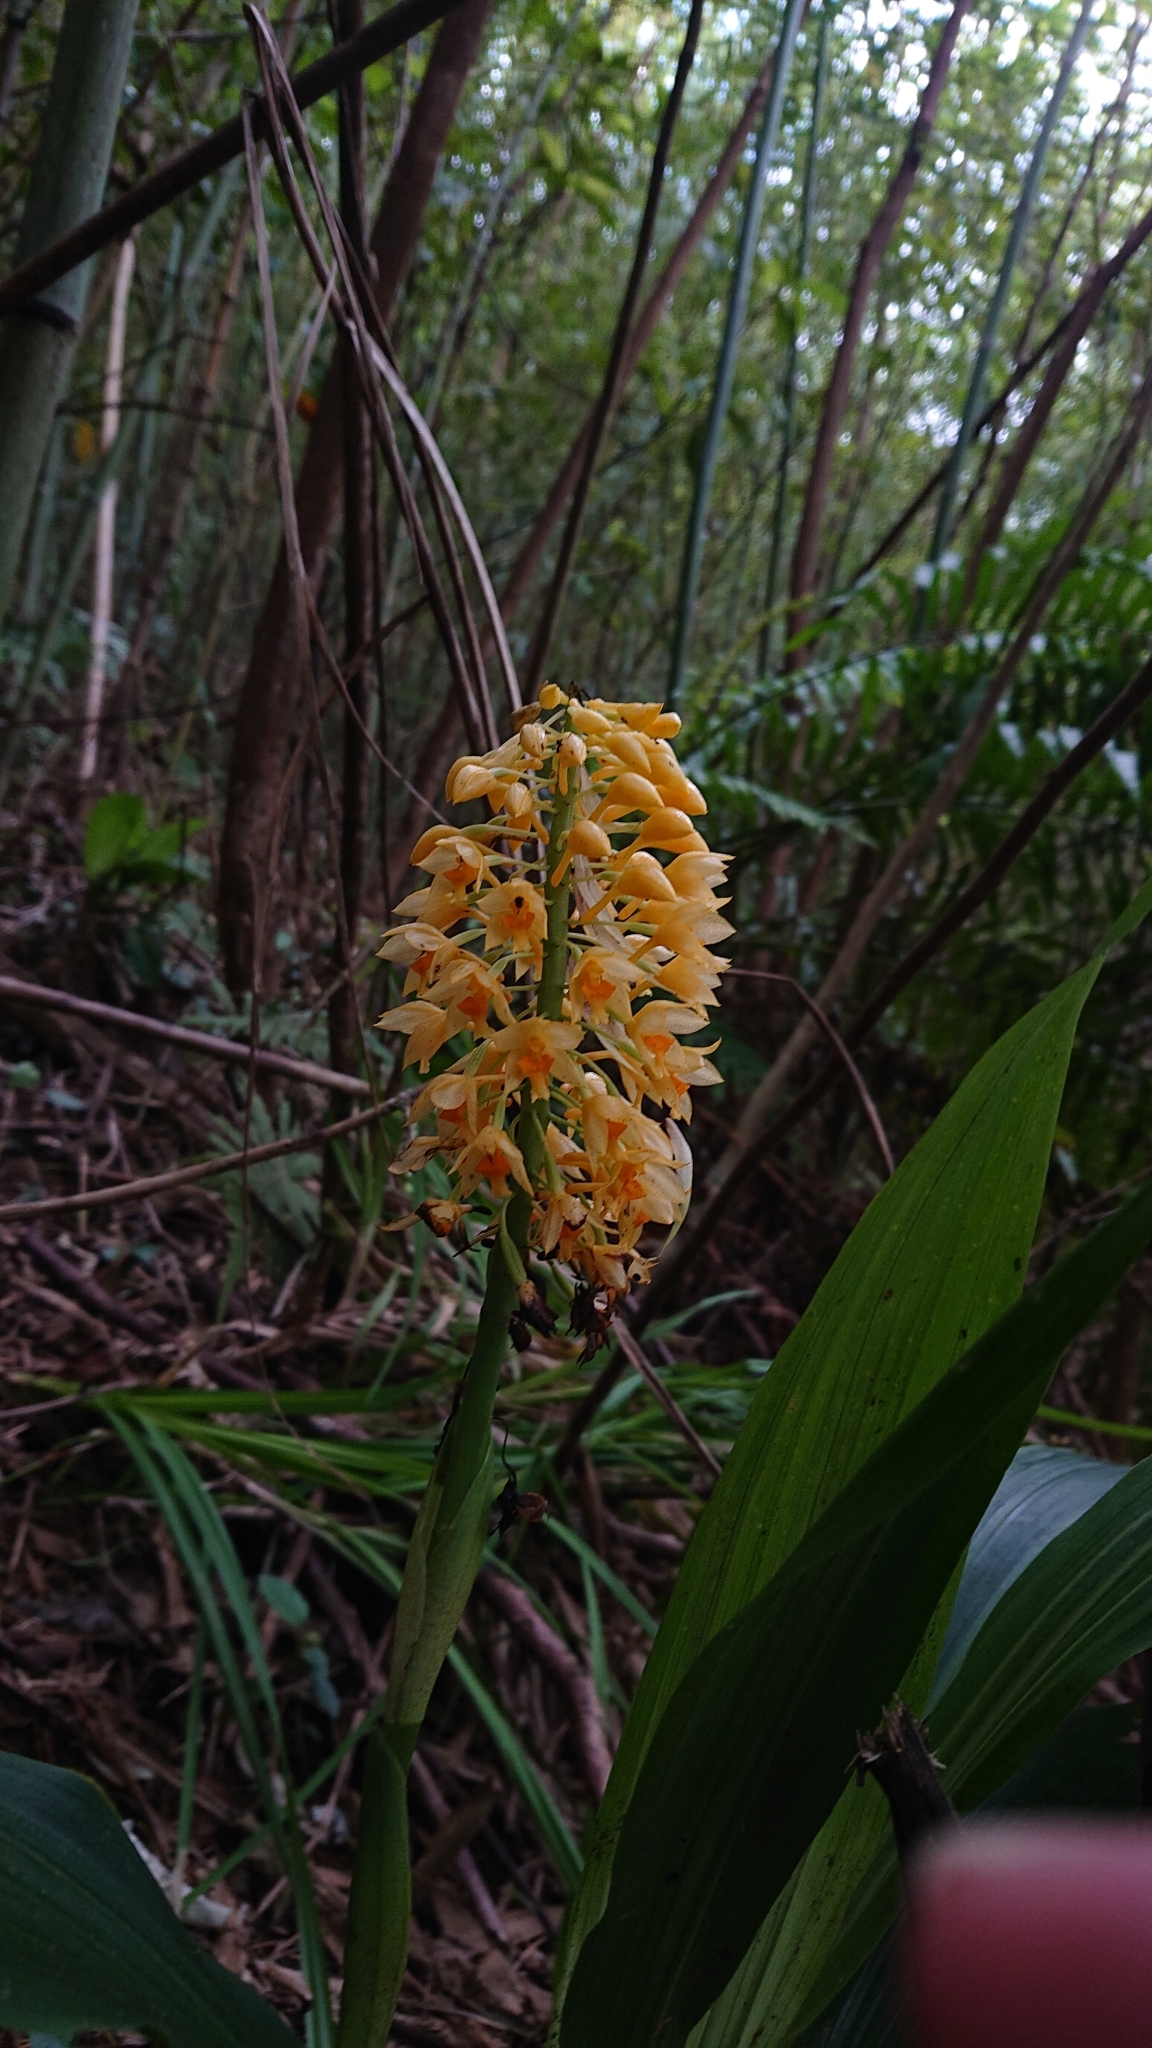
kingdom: Plantae
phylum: Tracheophyta
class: Liliopsida
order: Asparagales
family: Orchidaceae
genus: Calanthe
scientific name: Calanthe formosana
